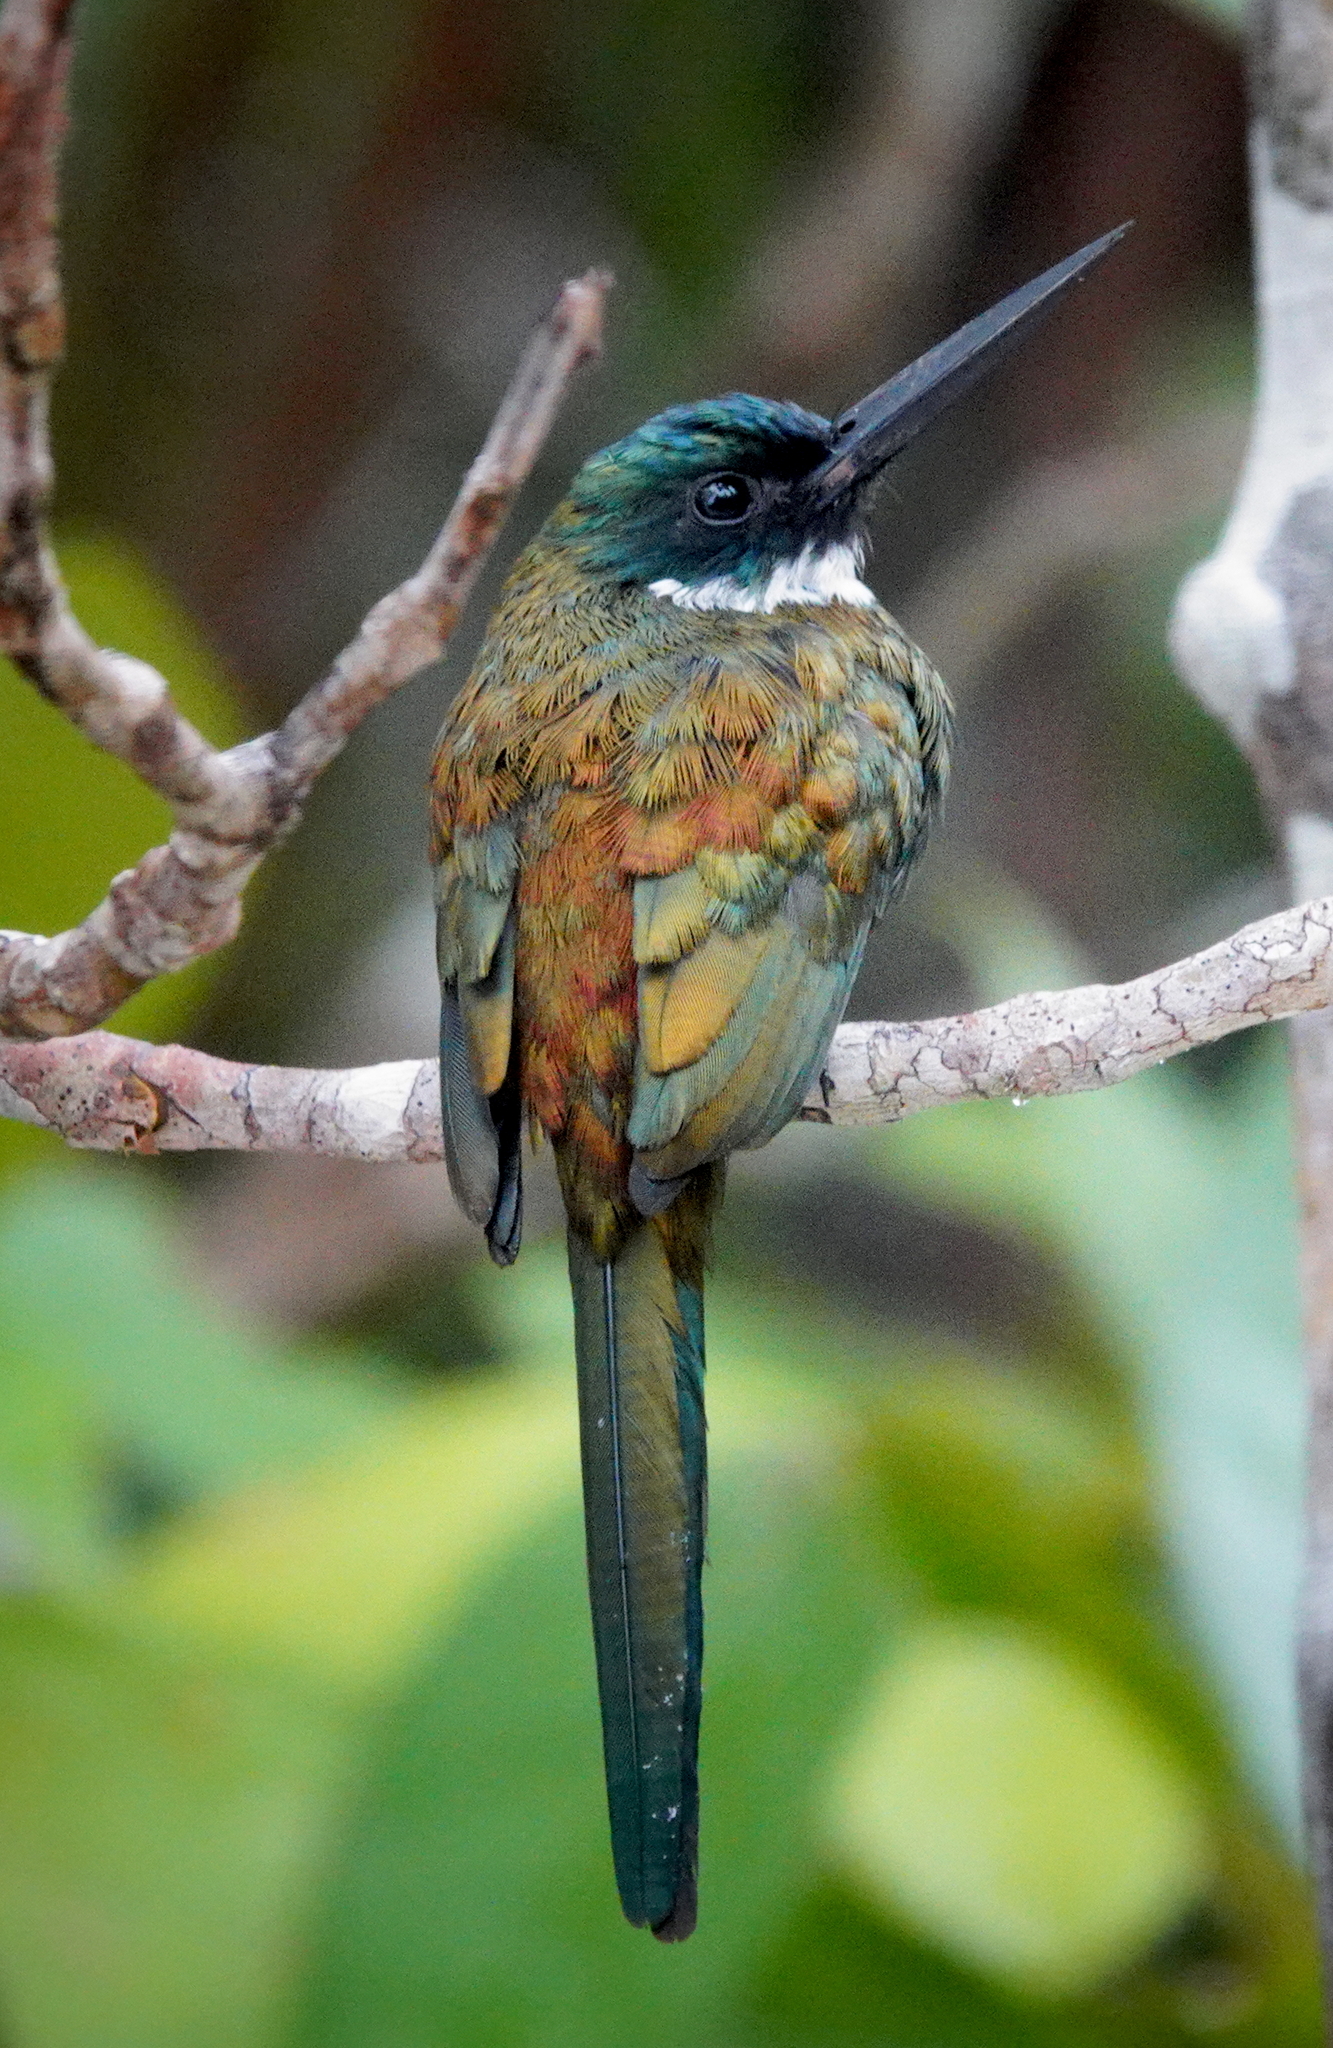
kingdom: Animalia
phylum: Chordata
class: Aves
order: Piciformes
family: Galbulidae
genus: Galbula
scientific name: Galbula leucogastra
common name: Bronzy jacamar
